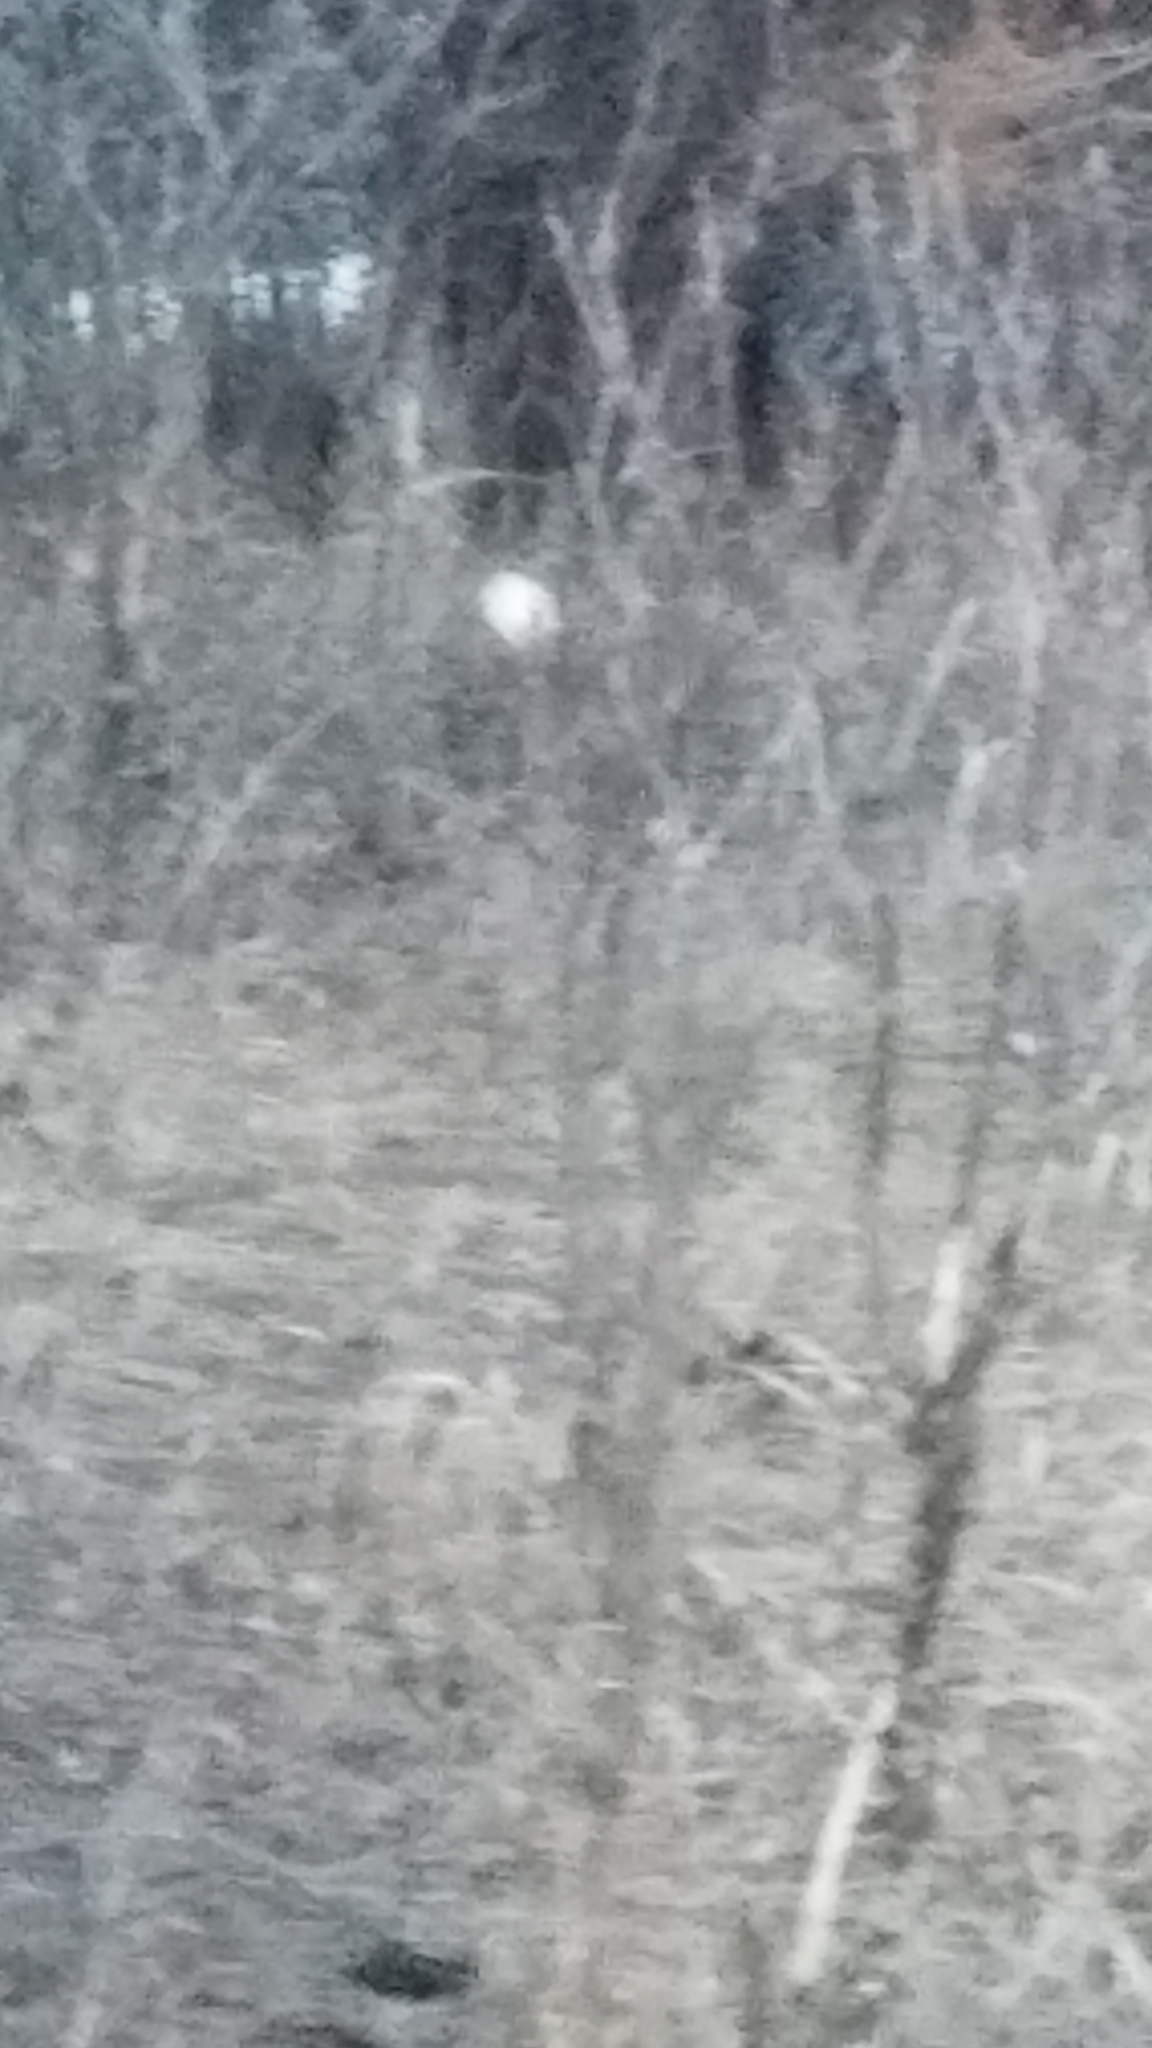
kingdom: Animalia
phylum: Chordata
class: Mammalia
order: Lagomorpha
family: Leporidae
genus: Sylvilagus
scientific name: Sylvilagus floridanus
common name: Eastern cottontail
